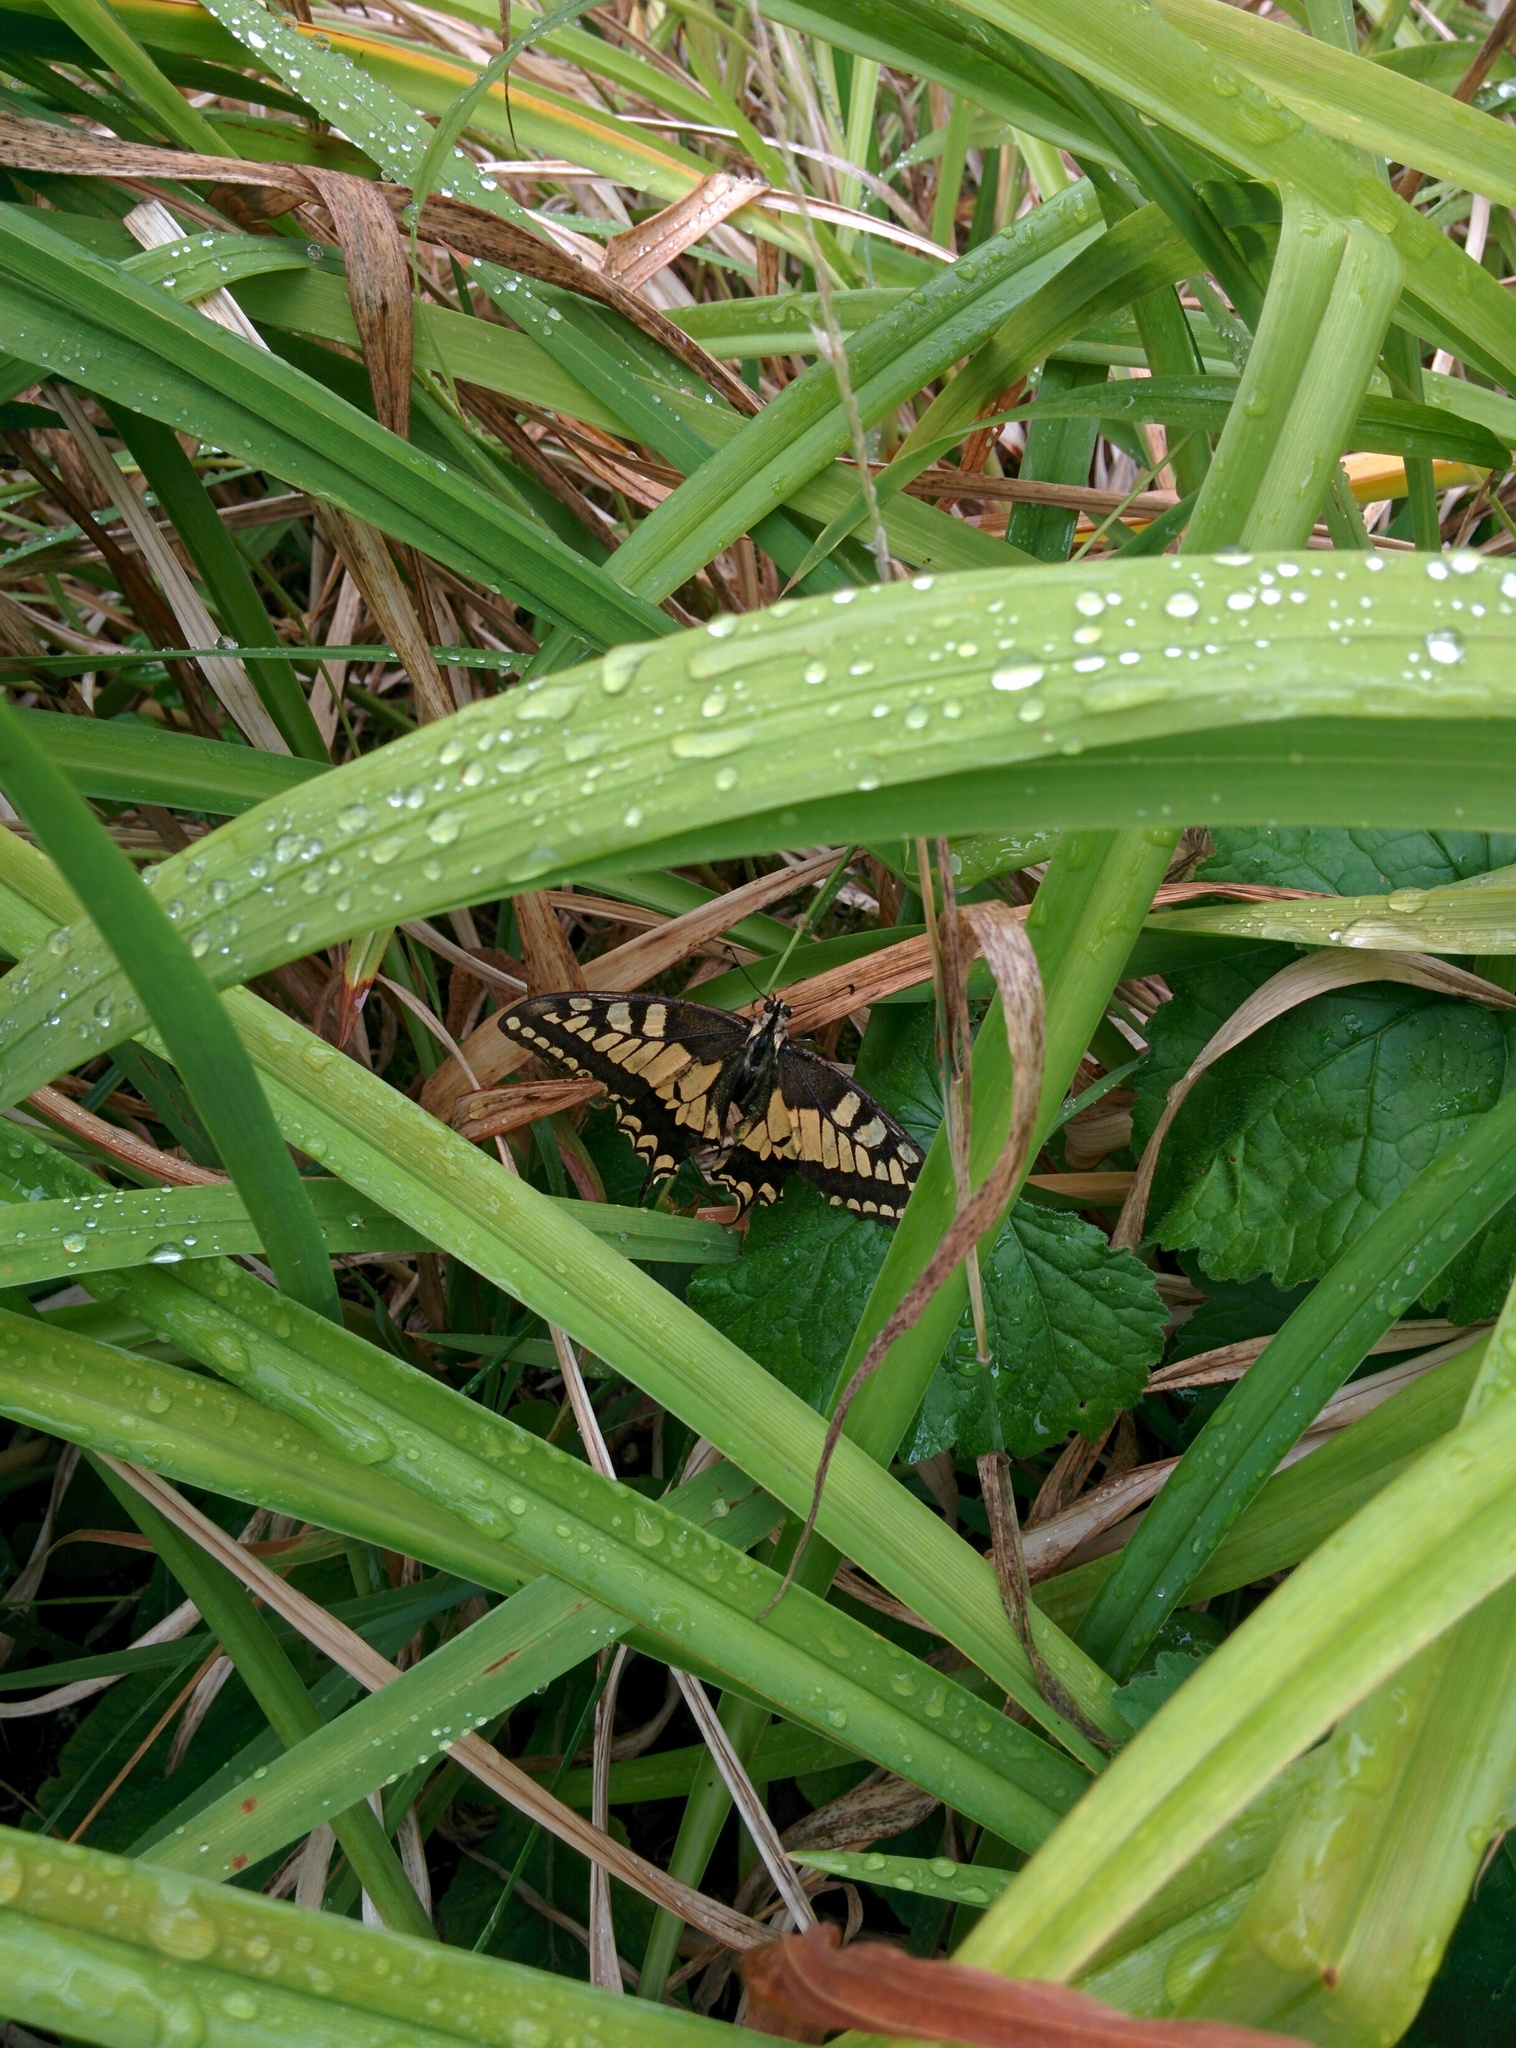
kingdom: Animalia
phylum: Arthropoda
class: Insecta
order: Lepidoptera
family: Papilionidae
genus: Papilio
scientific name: Papilio machaon
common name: Swallowtail
